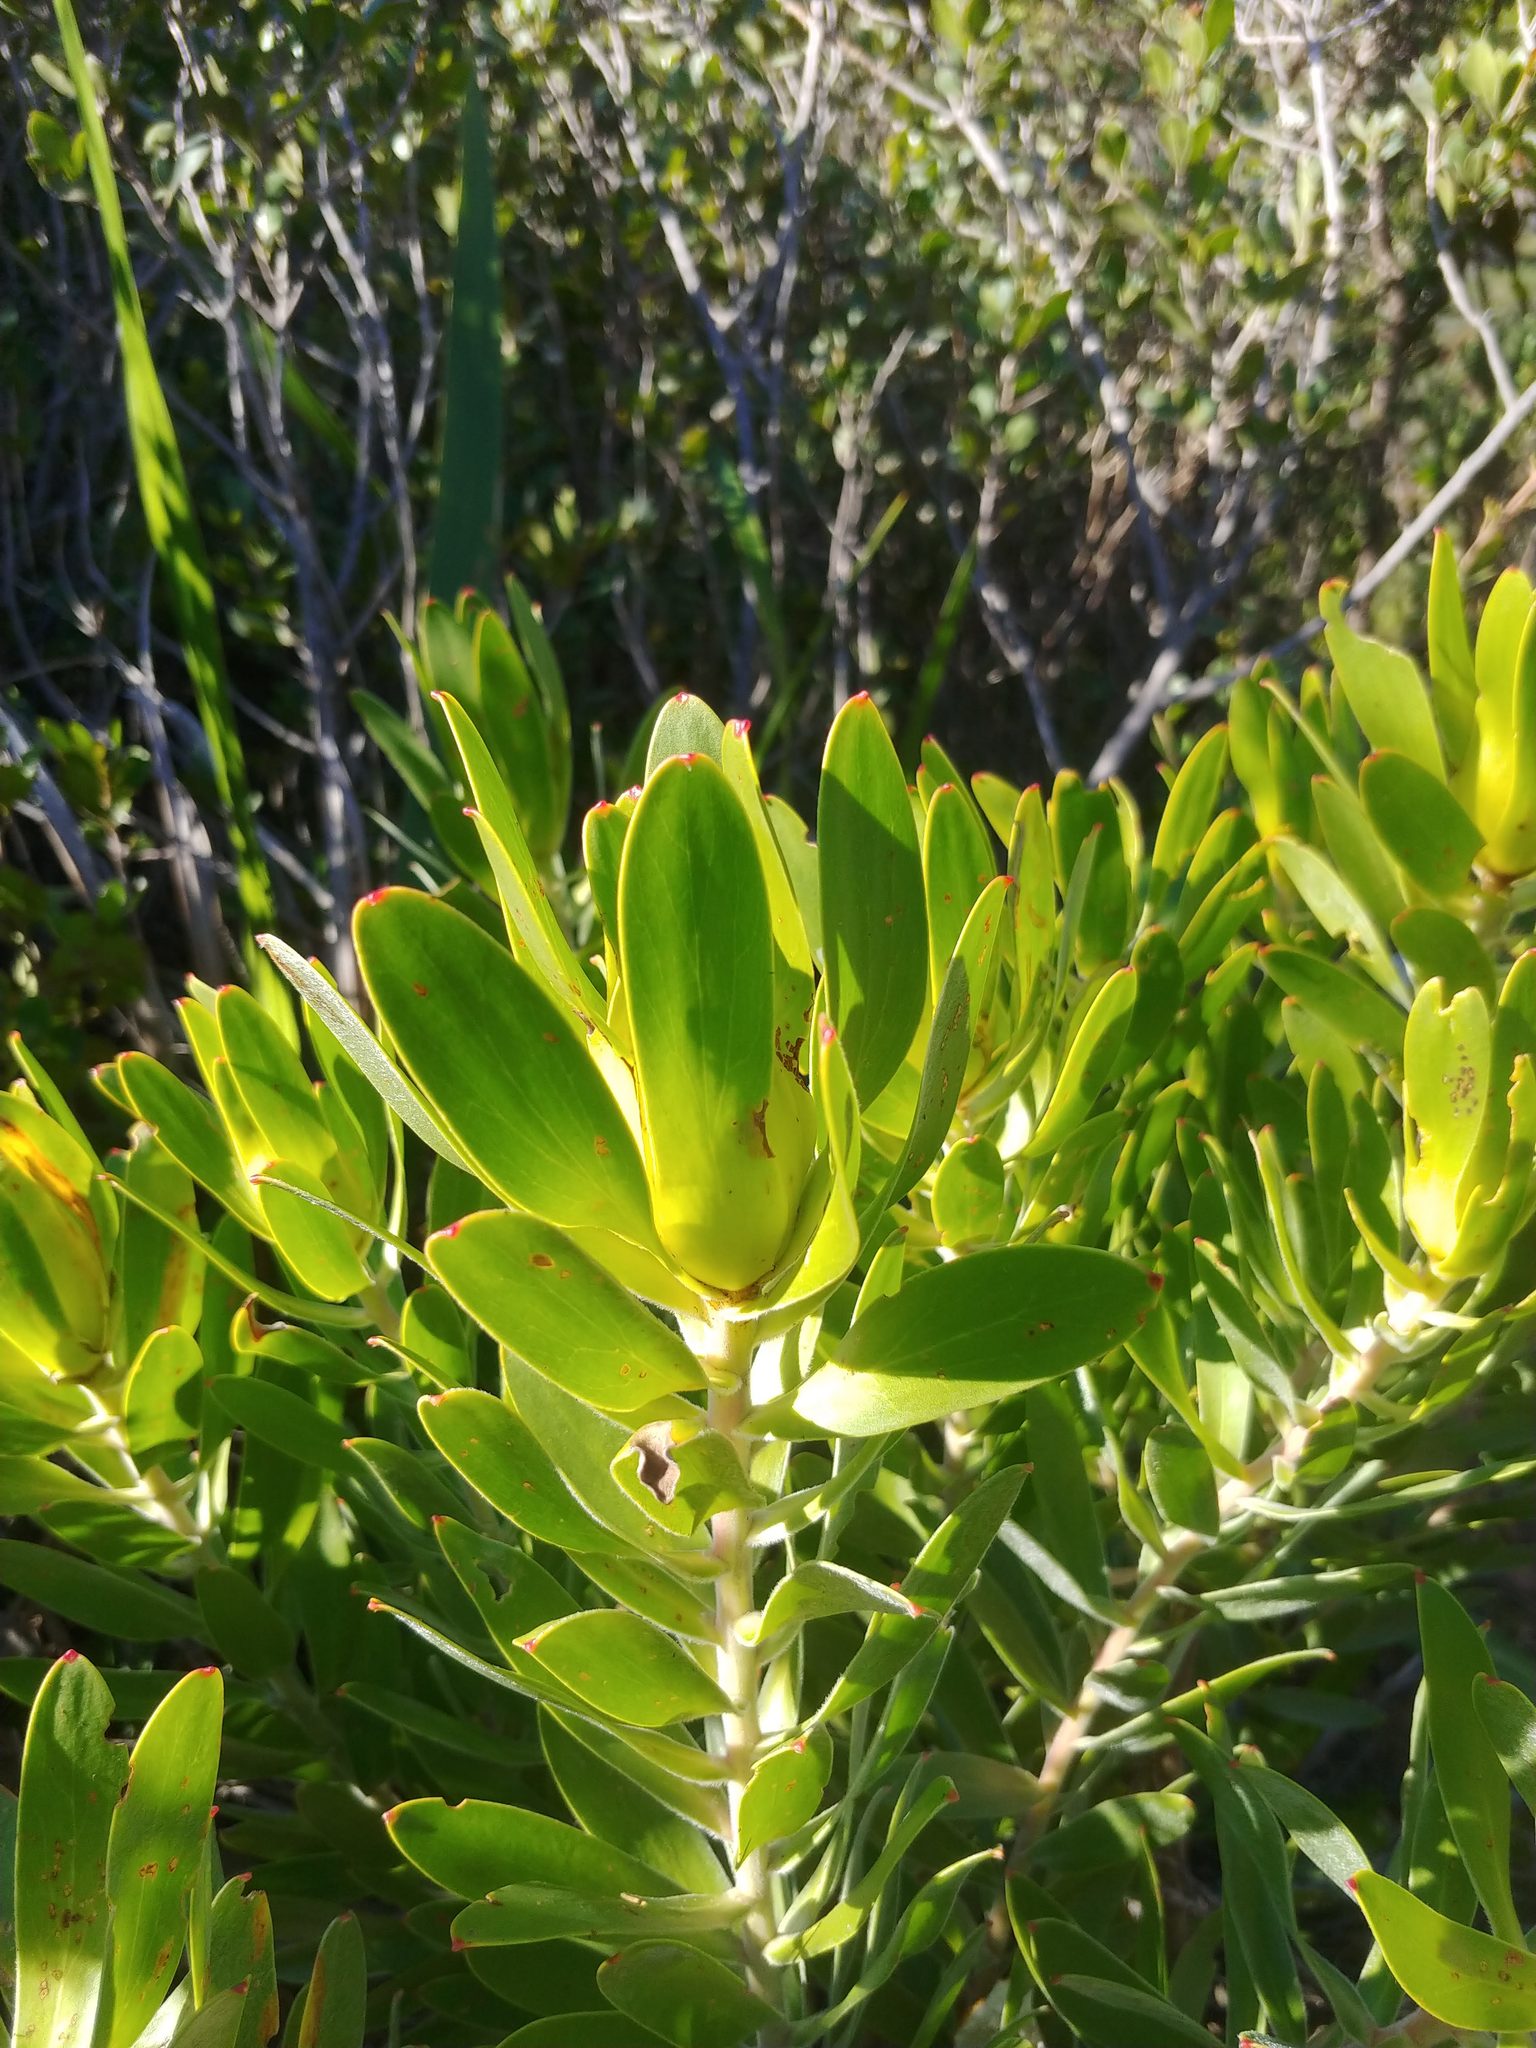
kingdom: Plantae
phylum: Tracheophyta
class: Magnoliopsida
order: Proteales
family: Proteaceae
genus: Leucadendron
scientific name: Leucadendron laureolum
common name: Golden sunshinebush
